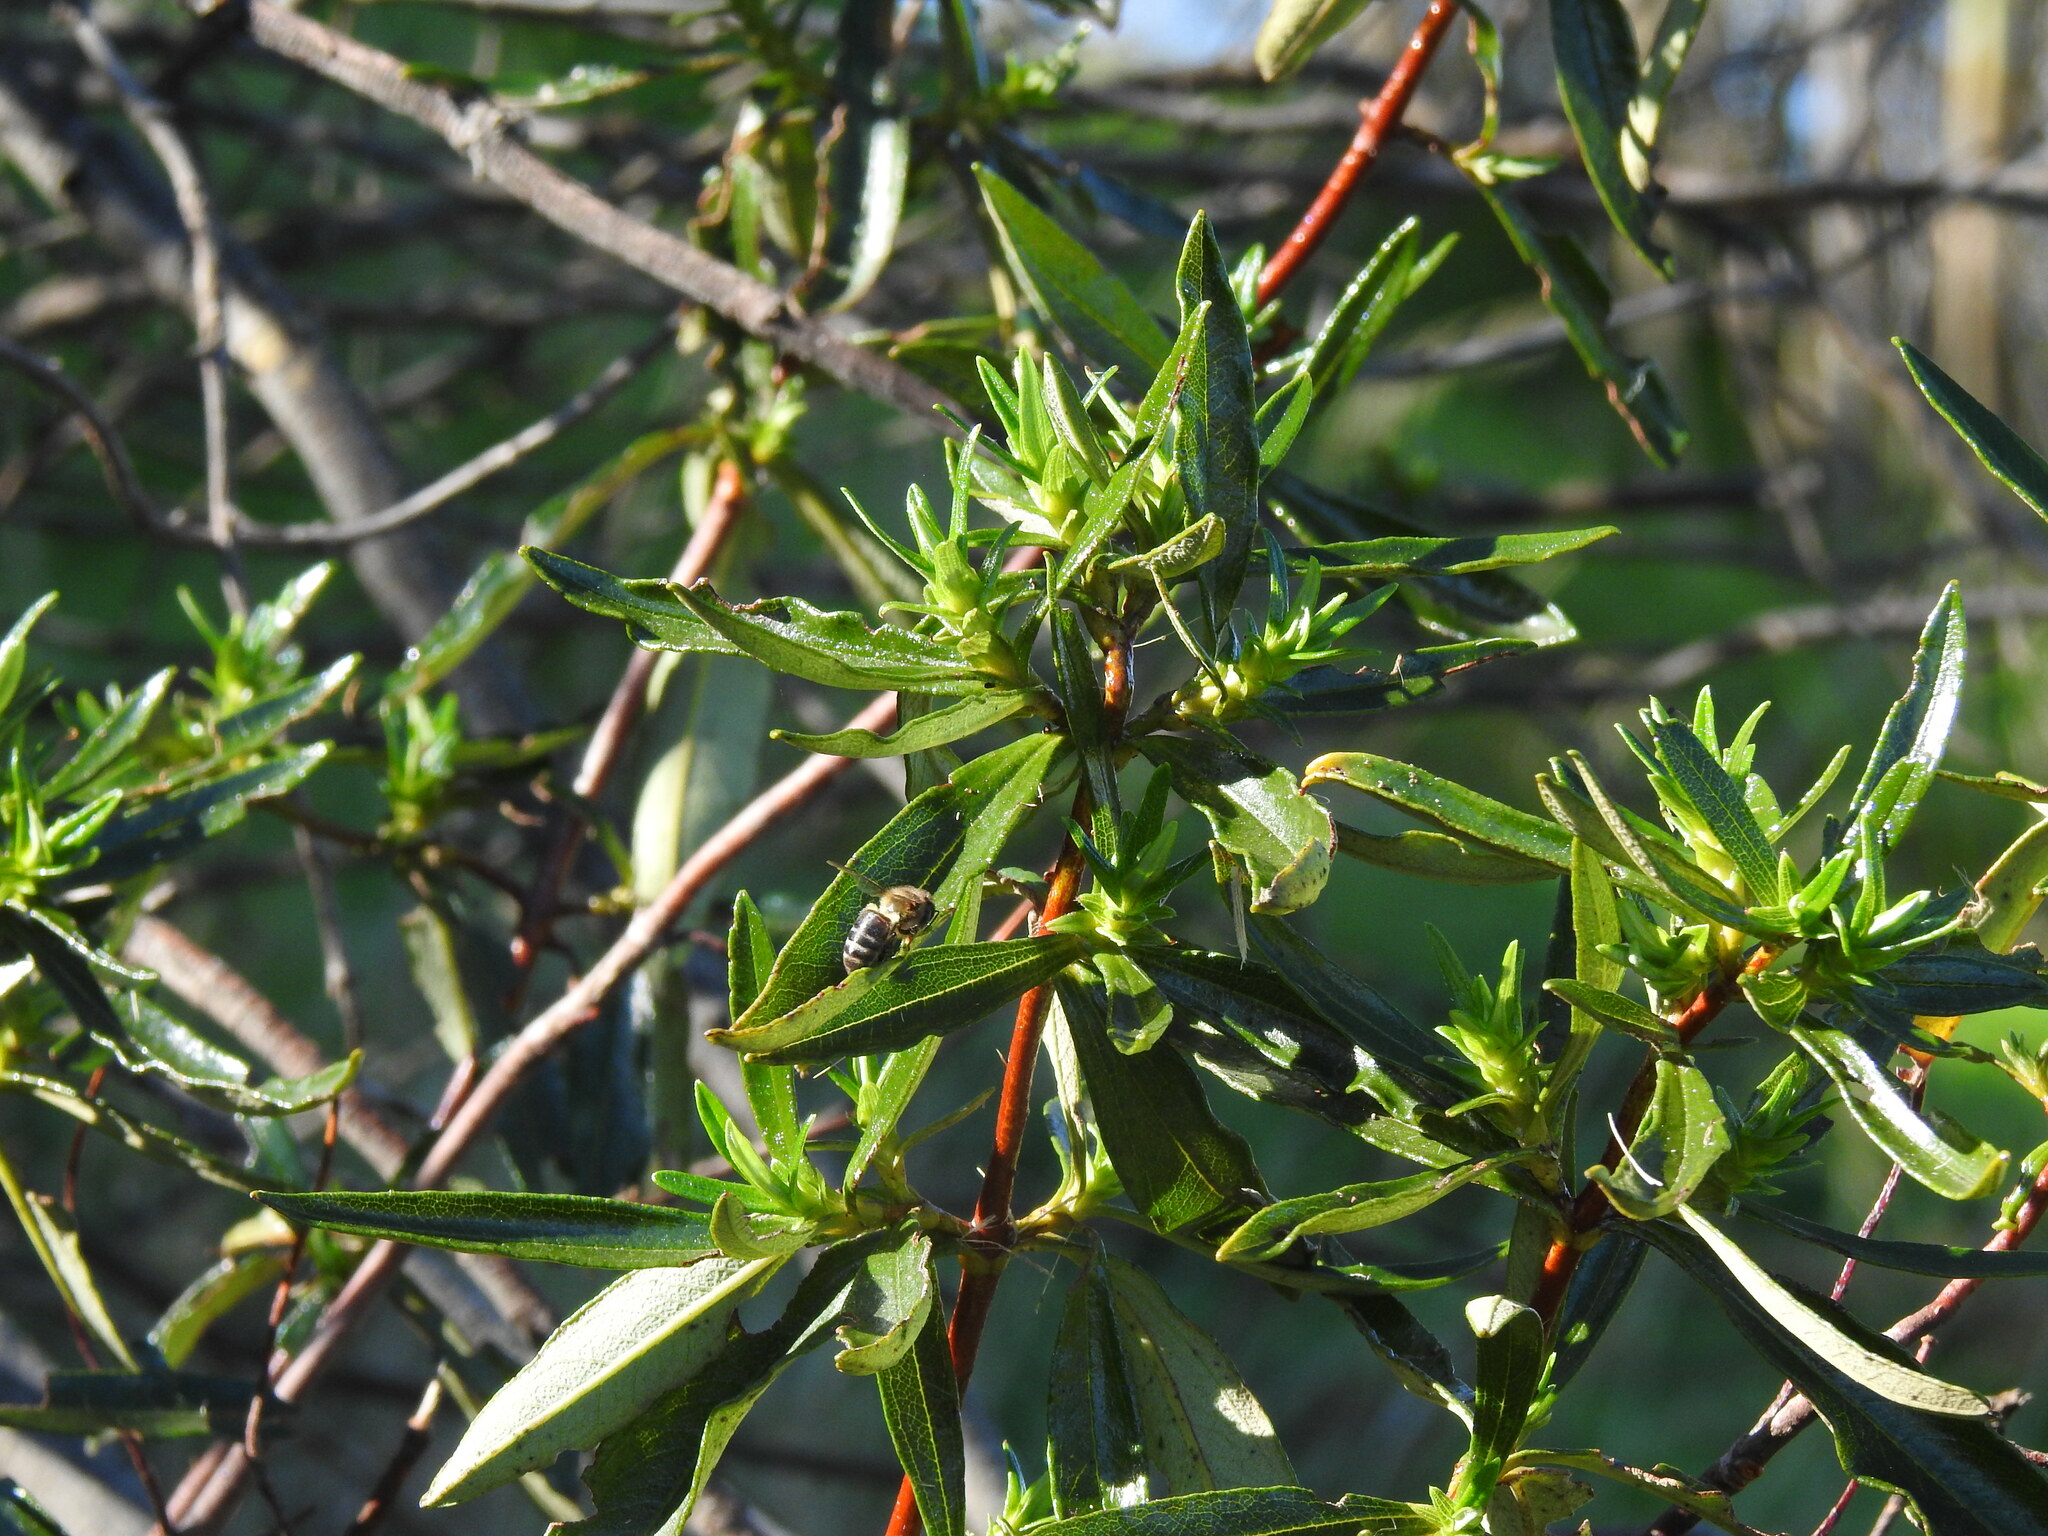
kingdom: Plantae
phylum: Tracheophyta
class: Magnoliopsida
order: Malvales
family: Cistaceae
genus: Cistus
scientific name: Cistus ladanifer
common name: Common gum cistus
